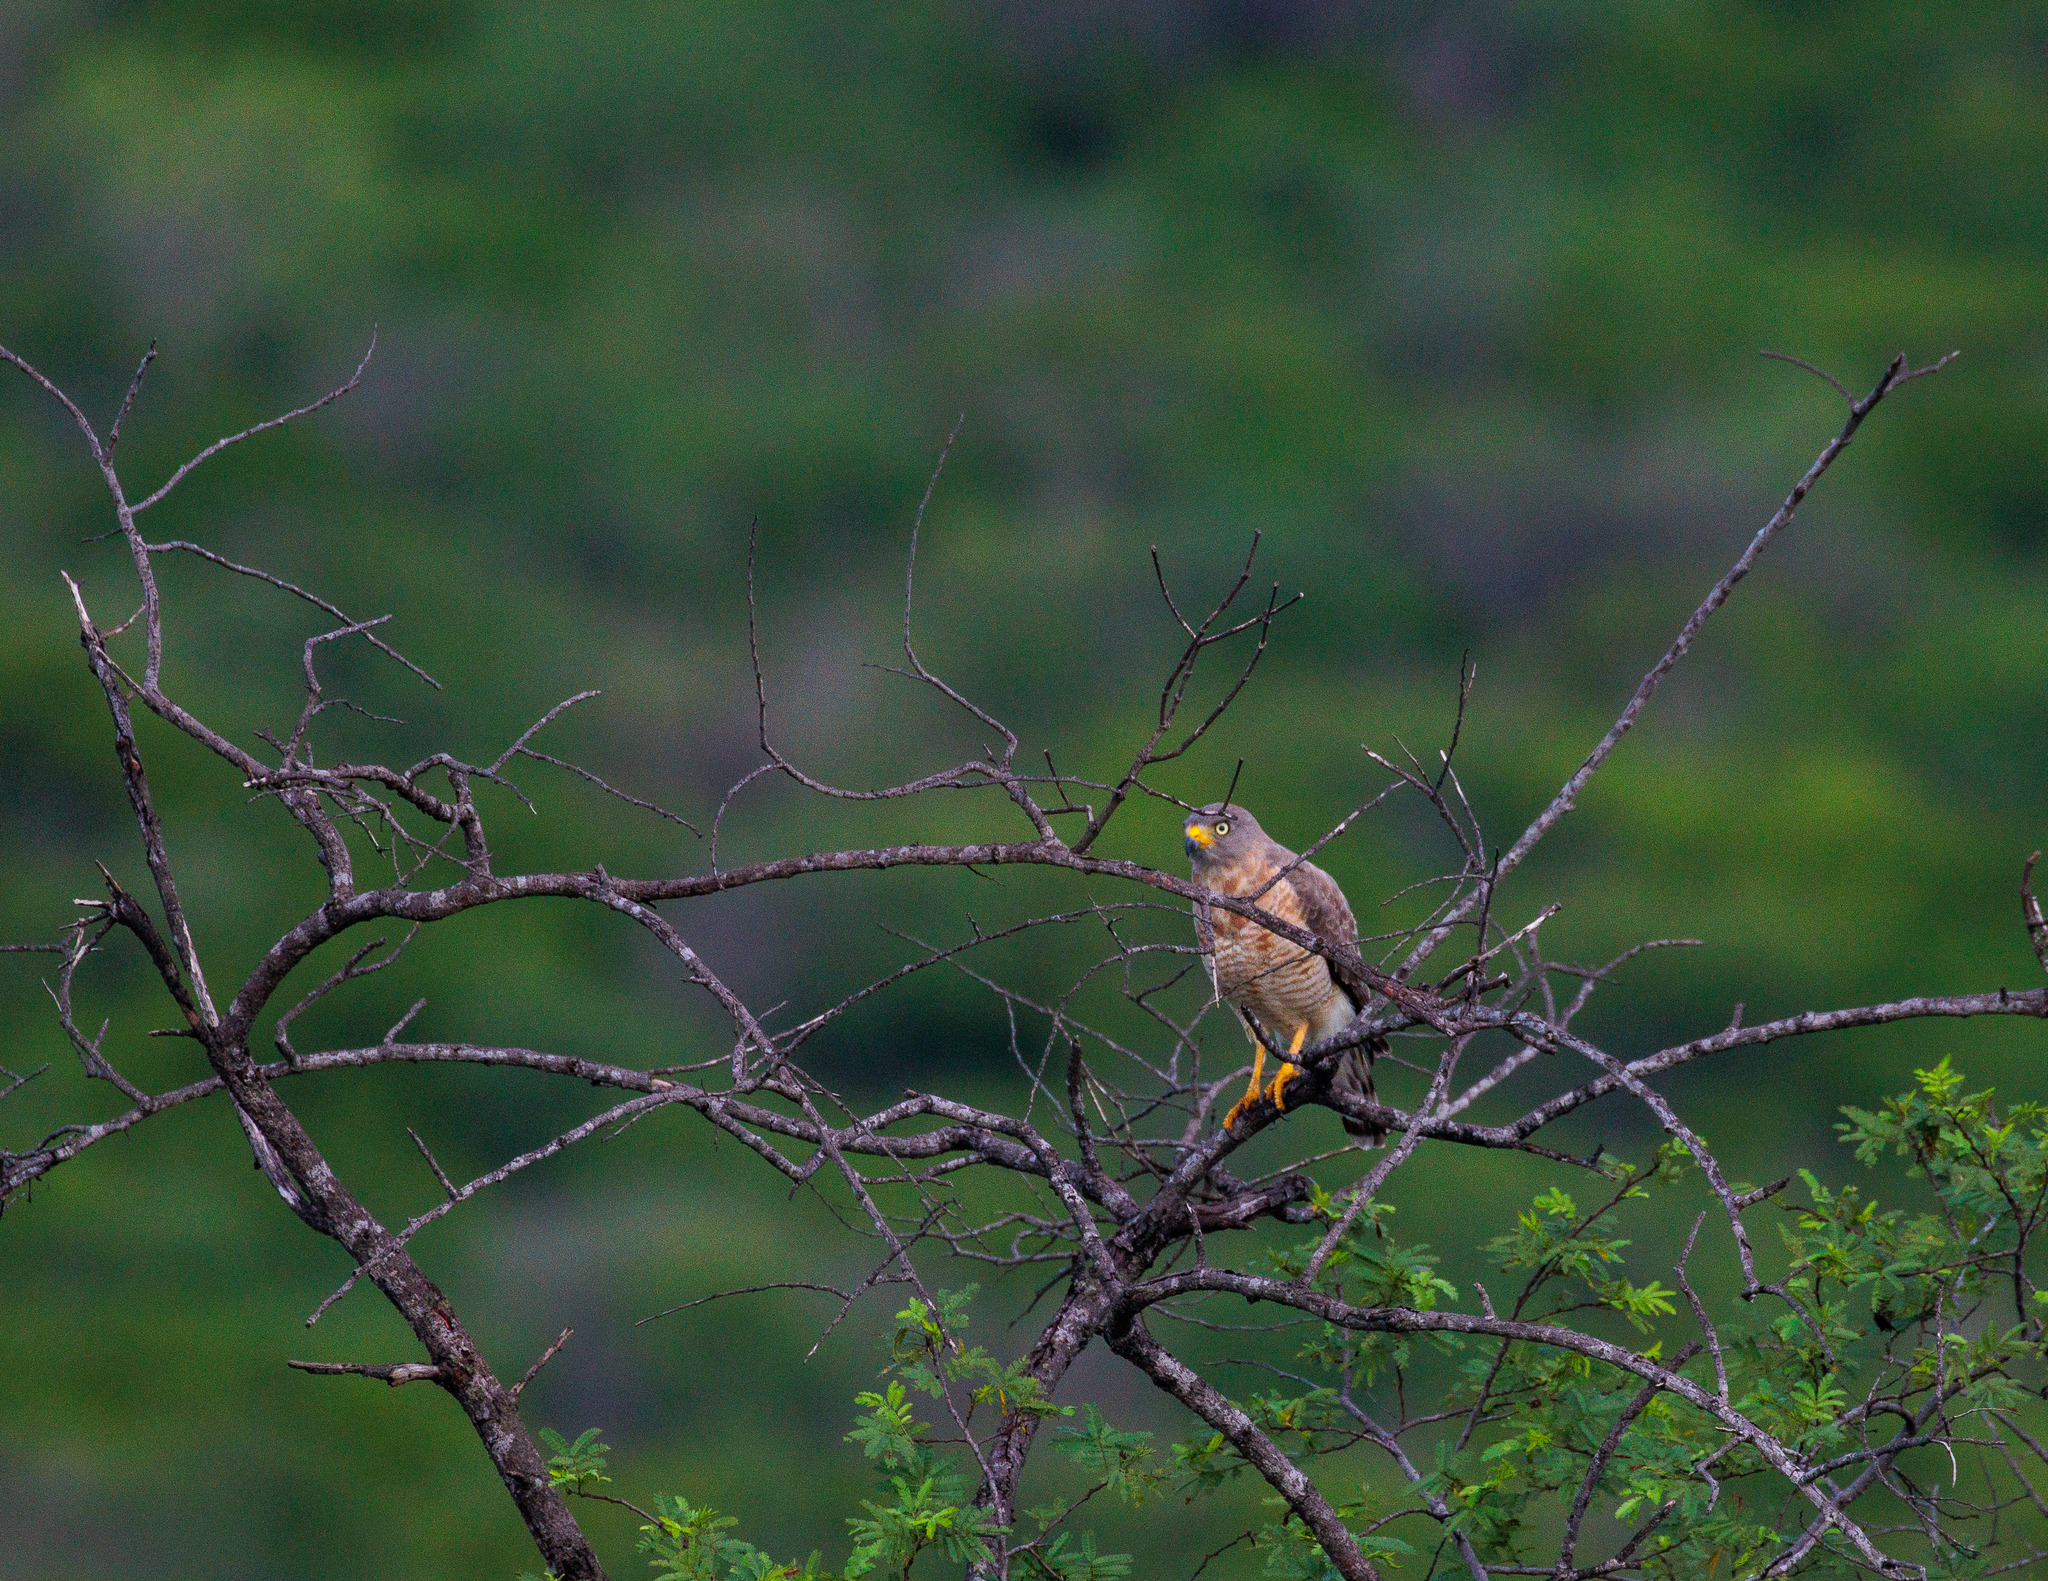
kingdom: Animalia
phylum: Chordata
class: Aves
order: Accipitriformes
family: Accipitridae
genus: Rupornis
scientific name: Rupornis magnirostris
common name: Roadside hawk
